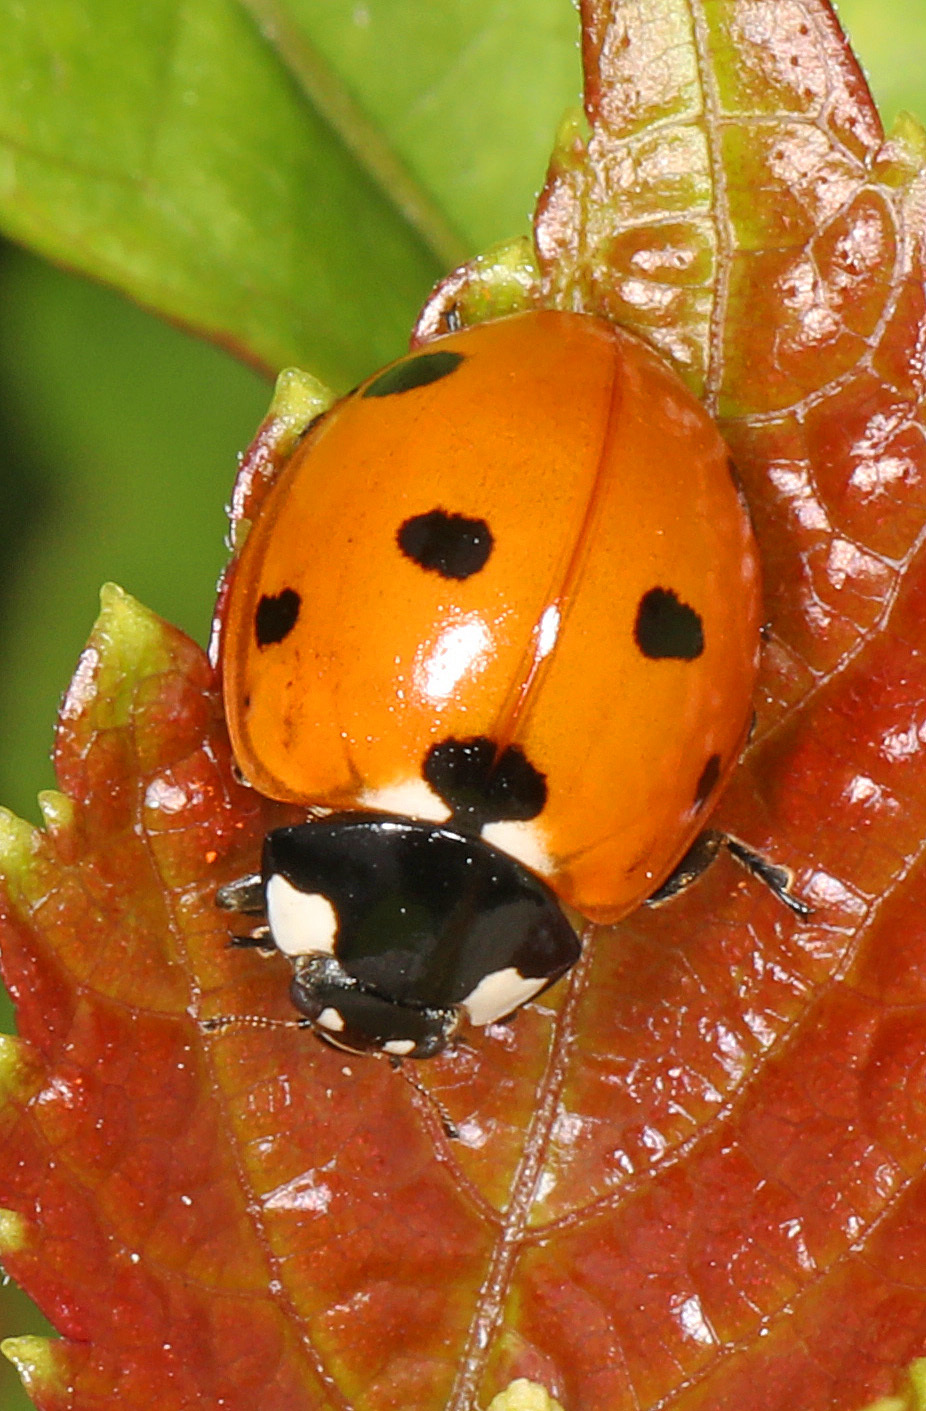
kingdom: Animalia
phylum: Arthropoda
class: Insecta
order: Coleoptera
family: Coccinellidae
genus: Coccinella
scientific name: Coccinella septempunctata
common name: Sevenspotted lady beetle
